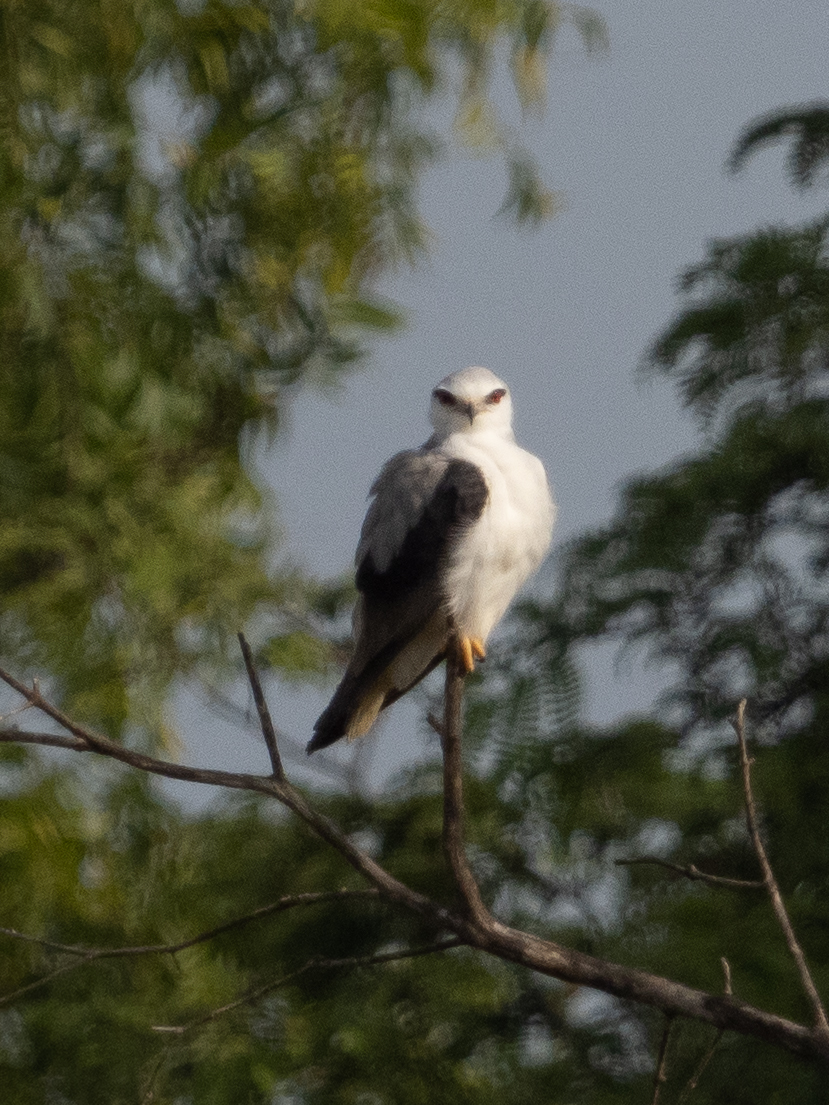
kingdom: Animalia
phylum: Chordata
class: Aves
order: Accipitriformes
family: Accipitridae
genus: Elanus
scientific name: Elanus caeruleus
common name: Black-winged kite
